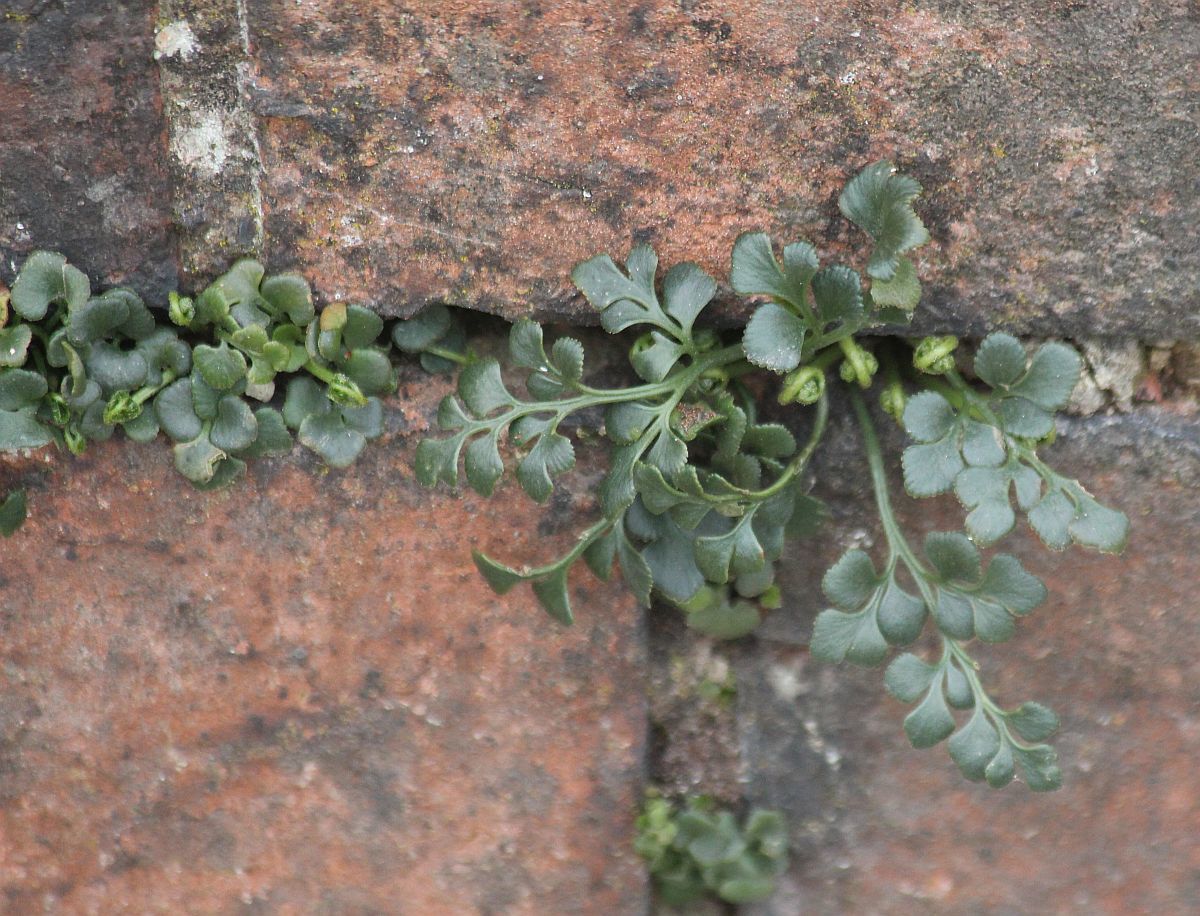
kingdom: Plantae
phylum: Tracheophyta
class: Polypodiopsida
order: Polypodiales
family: Aspleniaceae
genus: Asplenium
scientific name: Asplenium ruta-muraria
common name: Wall-rue
